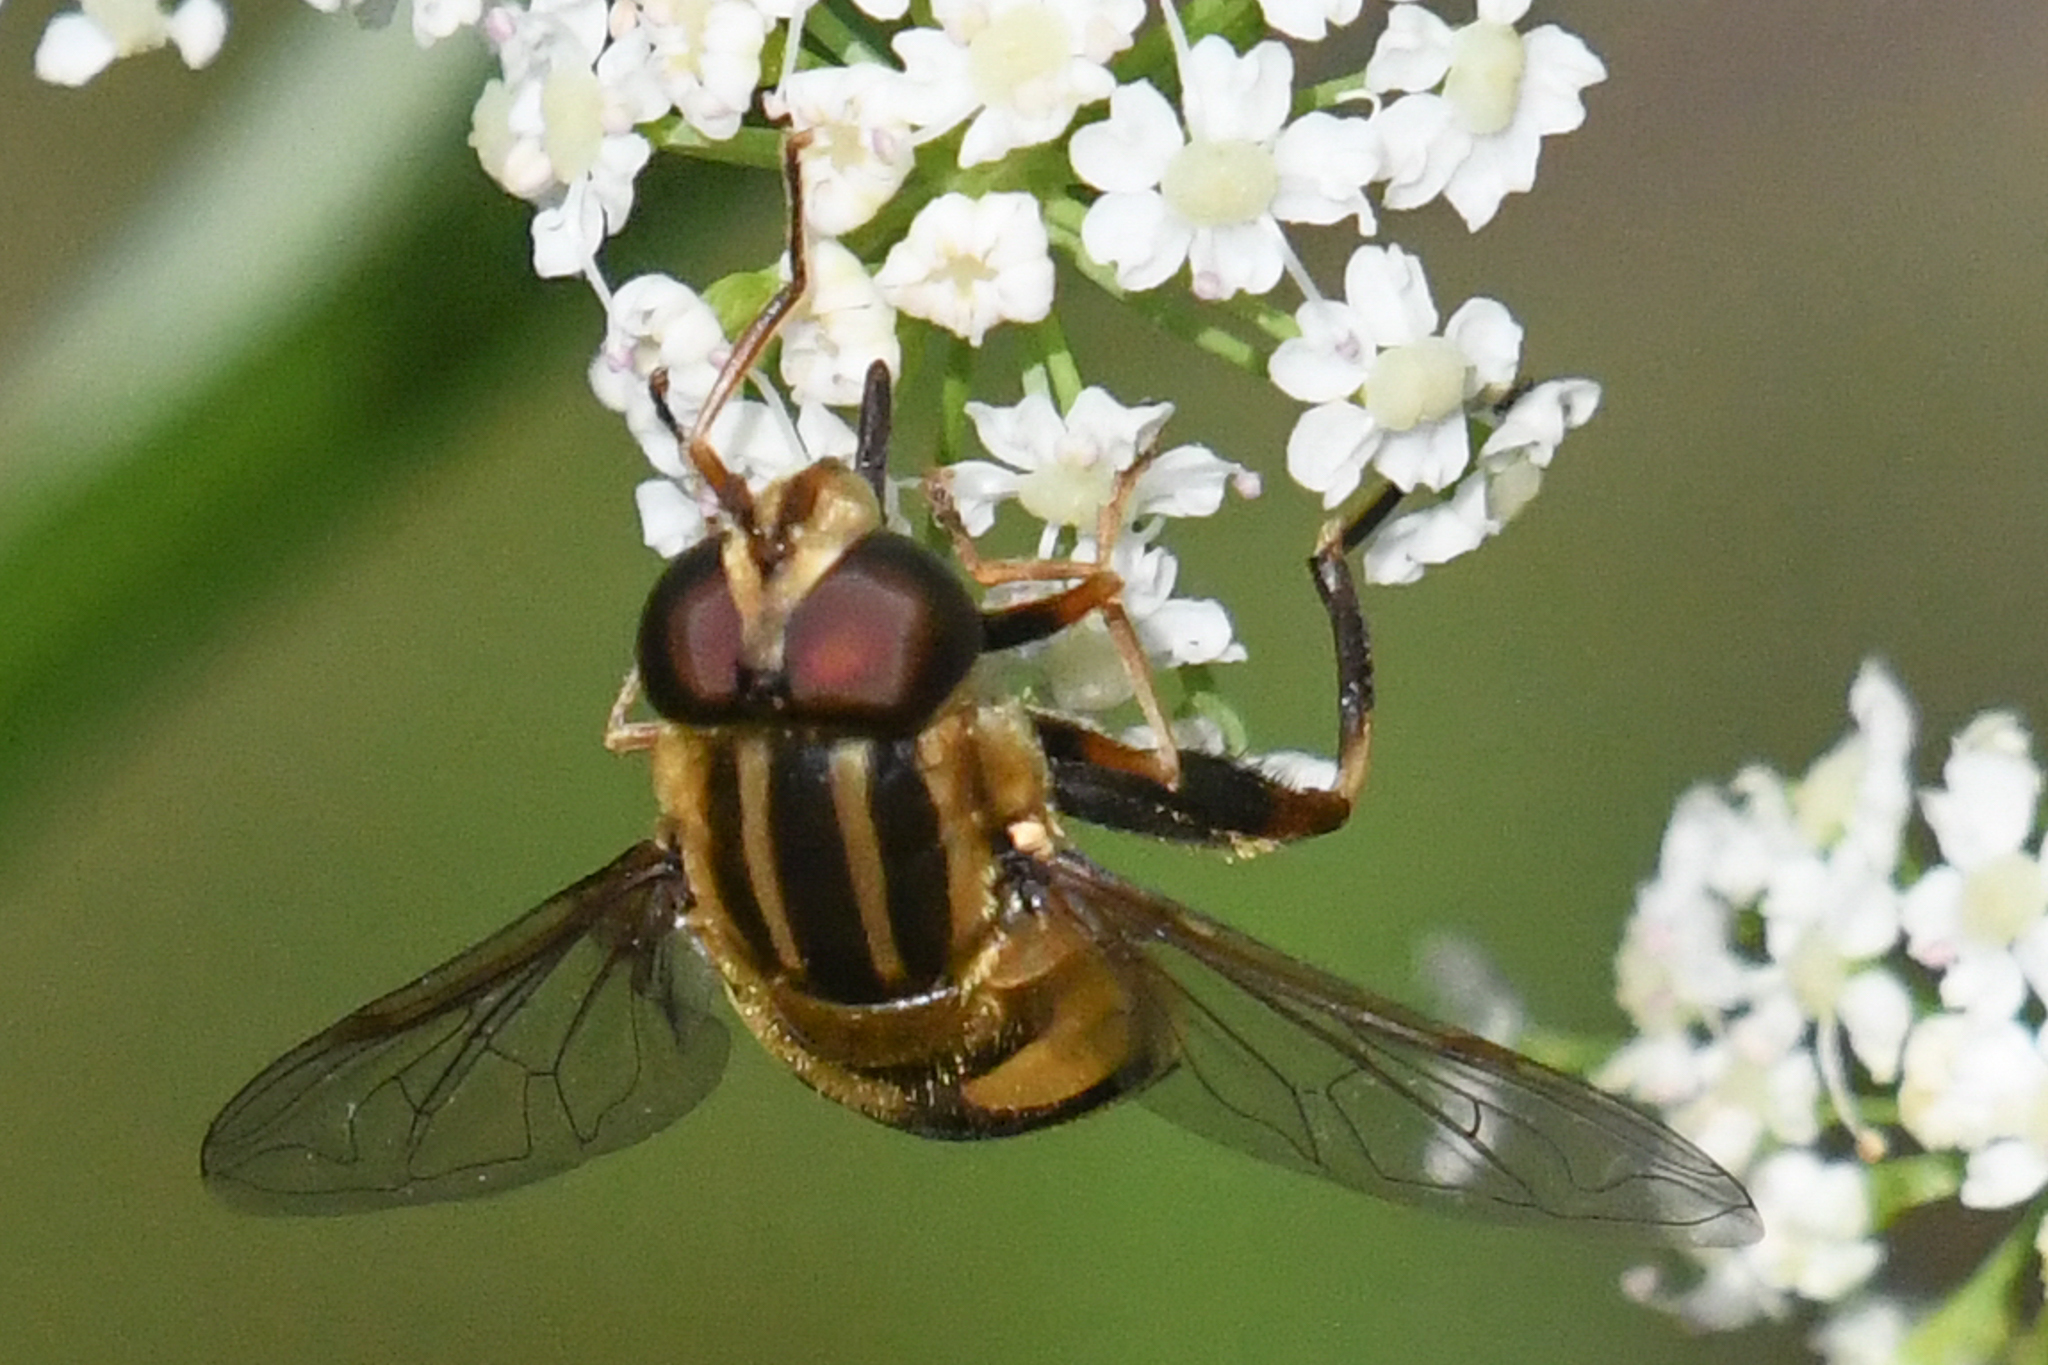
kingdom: Animalia
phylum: Arthropoda
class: Insecta
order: Diptera
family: Syrphidae
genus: Helophilus
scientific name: Helophilus fasciatus
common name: Narrow-headed marsh fly
